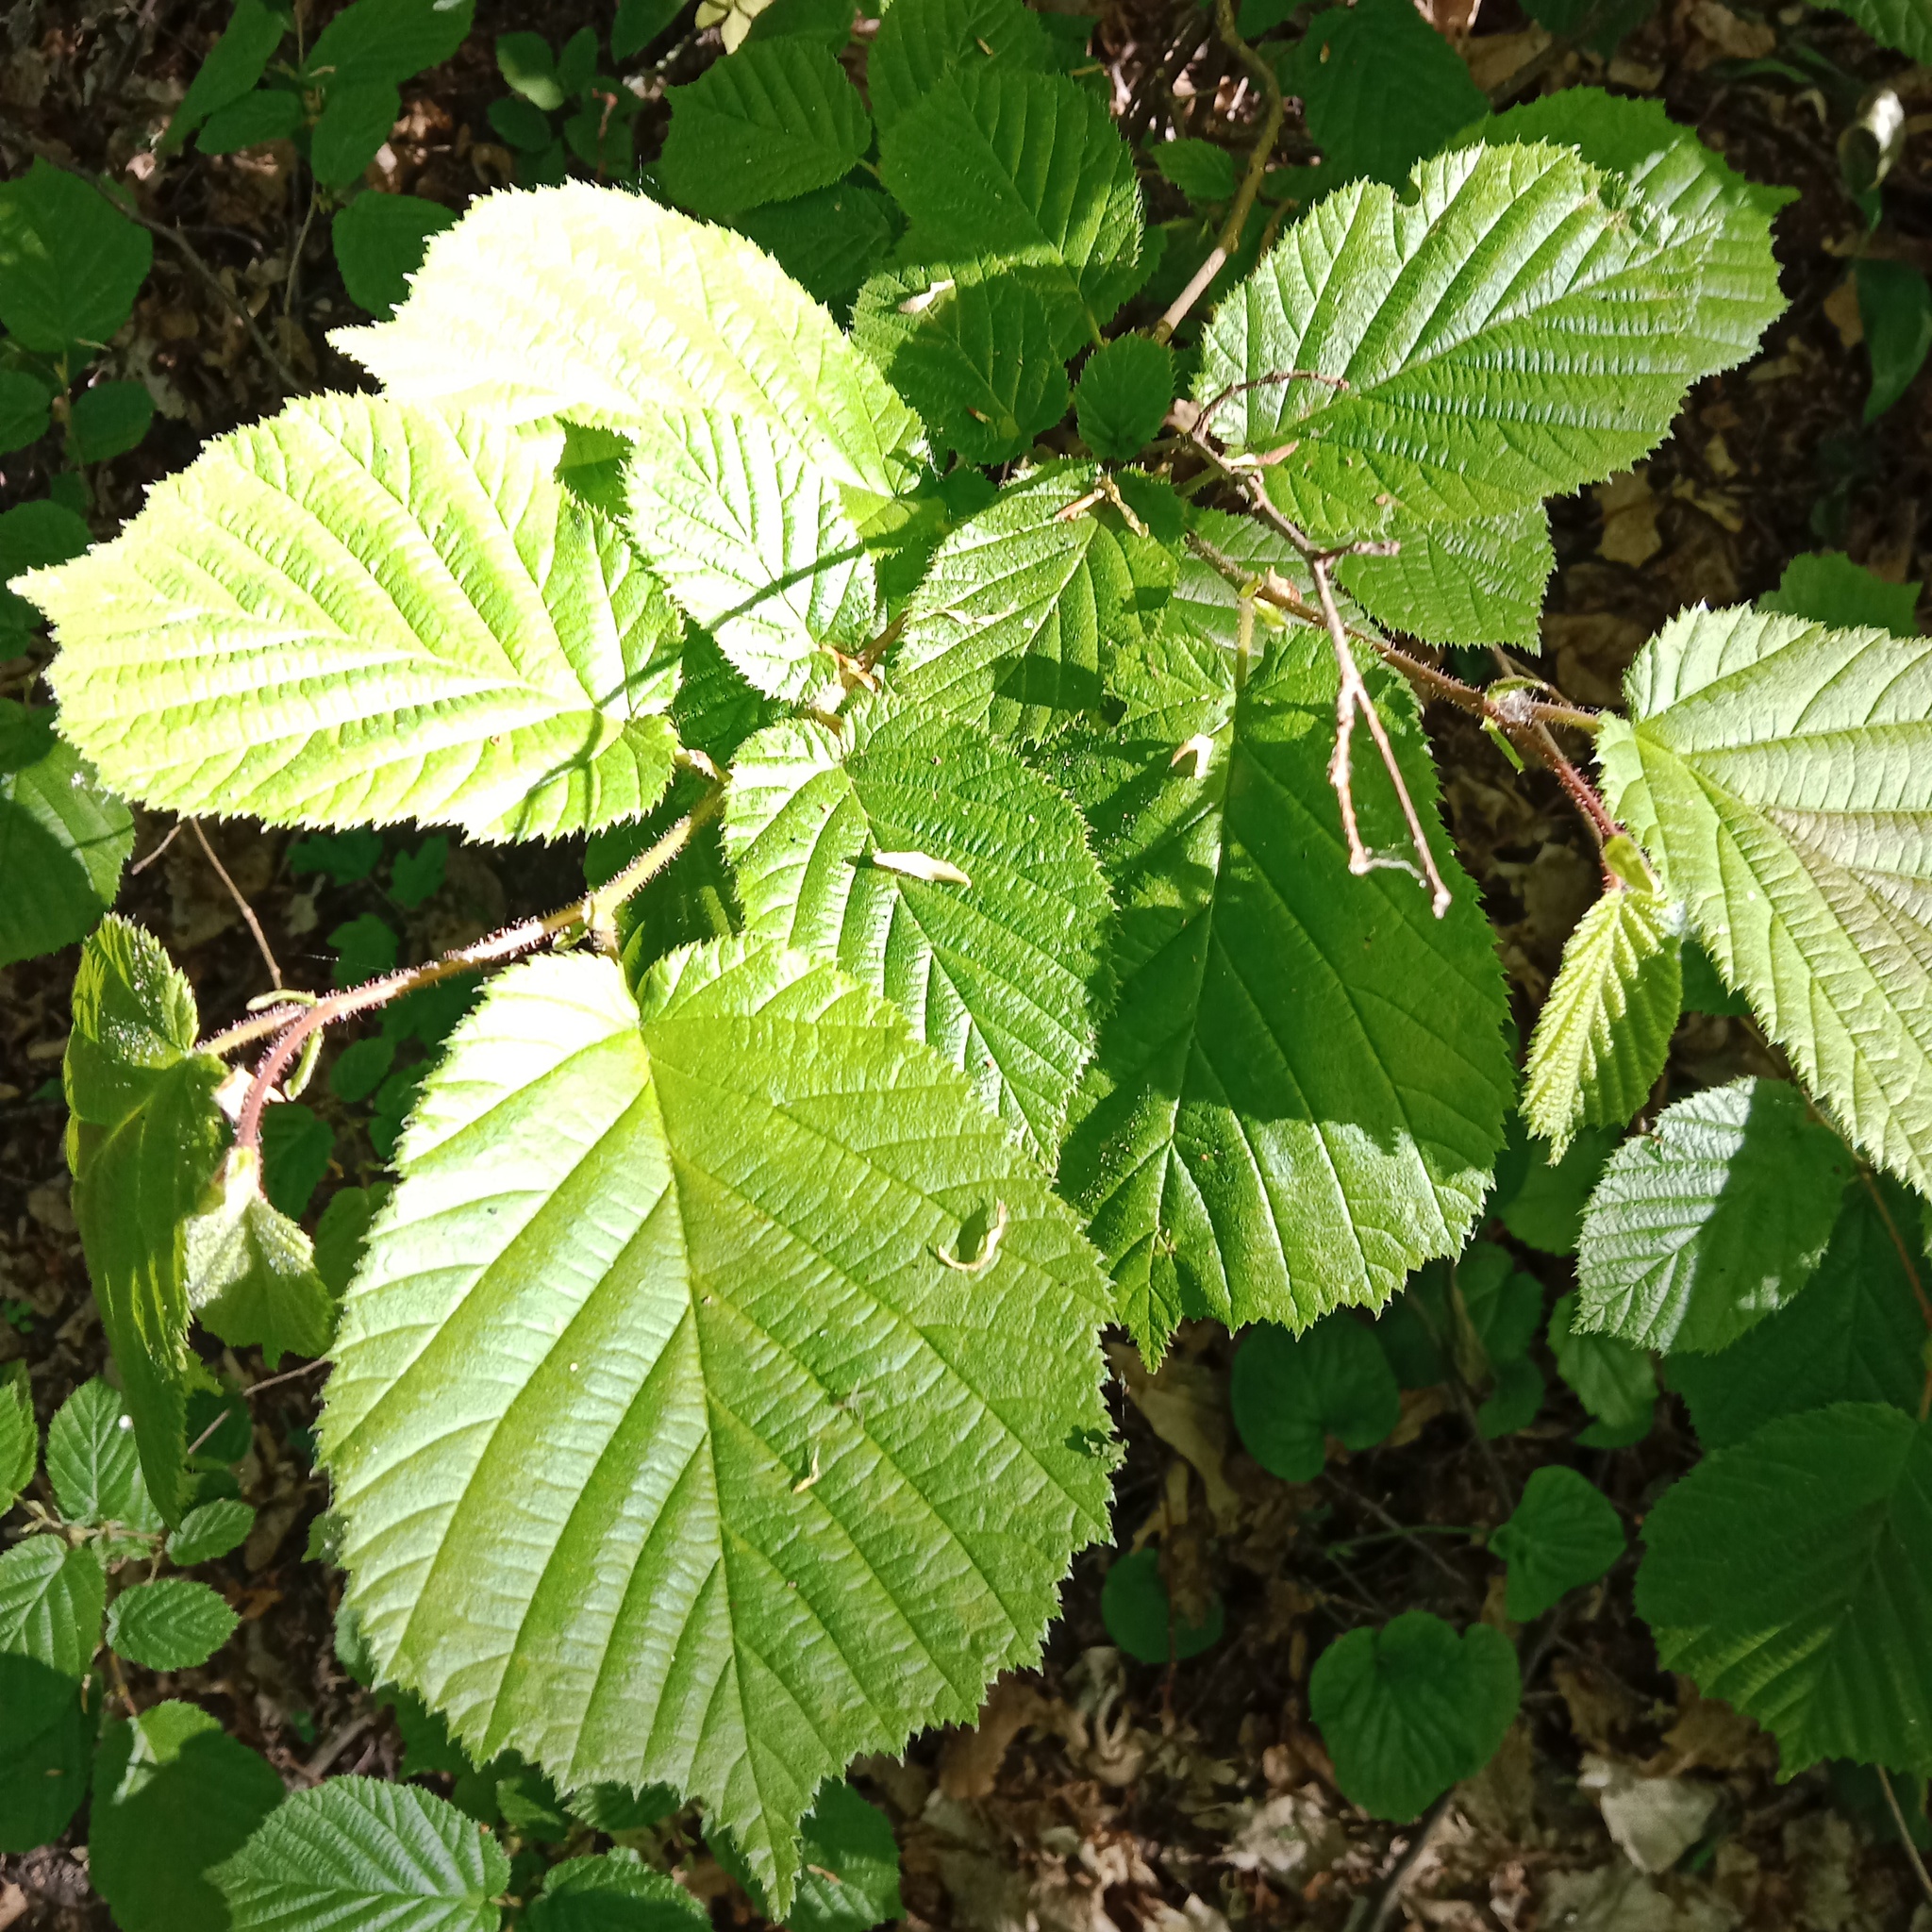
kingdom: Plantae
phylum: Tracheophyta
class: Magnoliopsida
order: Fagales
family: Betulaceae
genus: Corylus
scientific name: Corylus avellana
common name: European hazel
